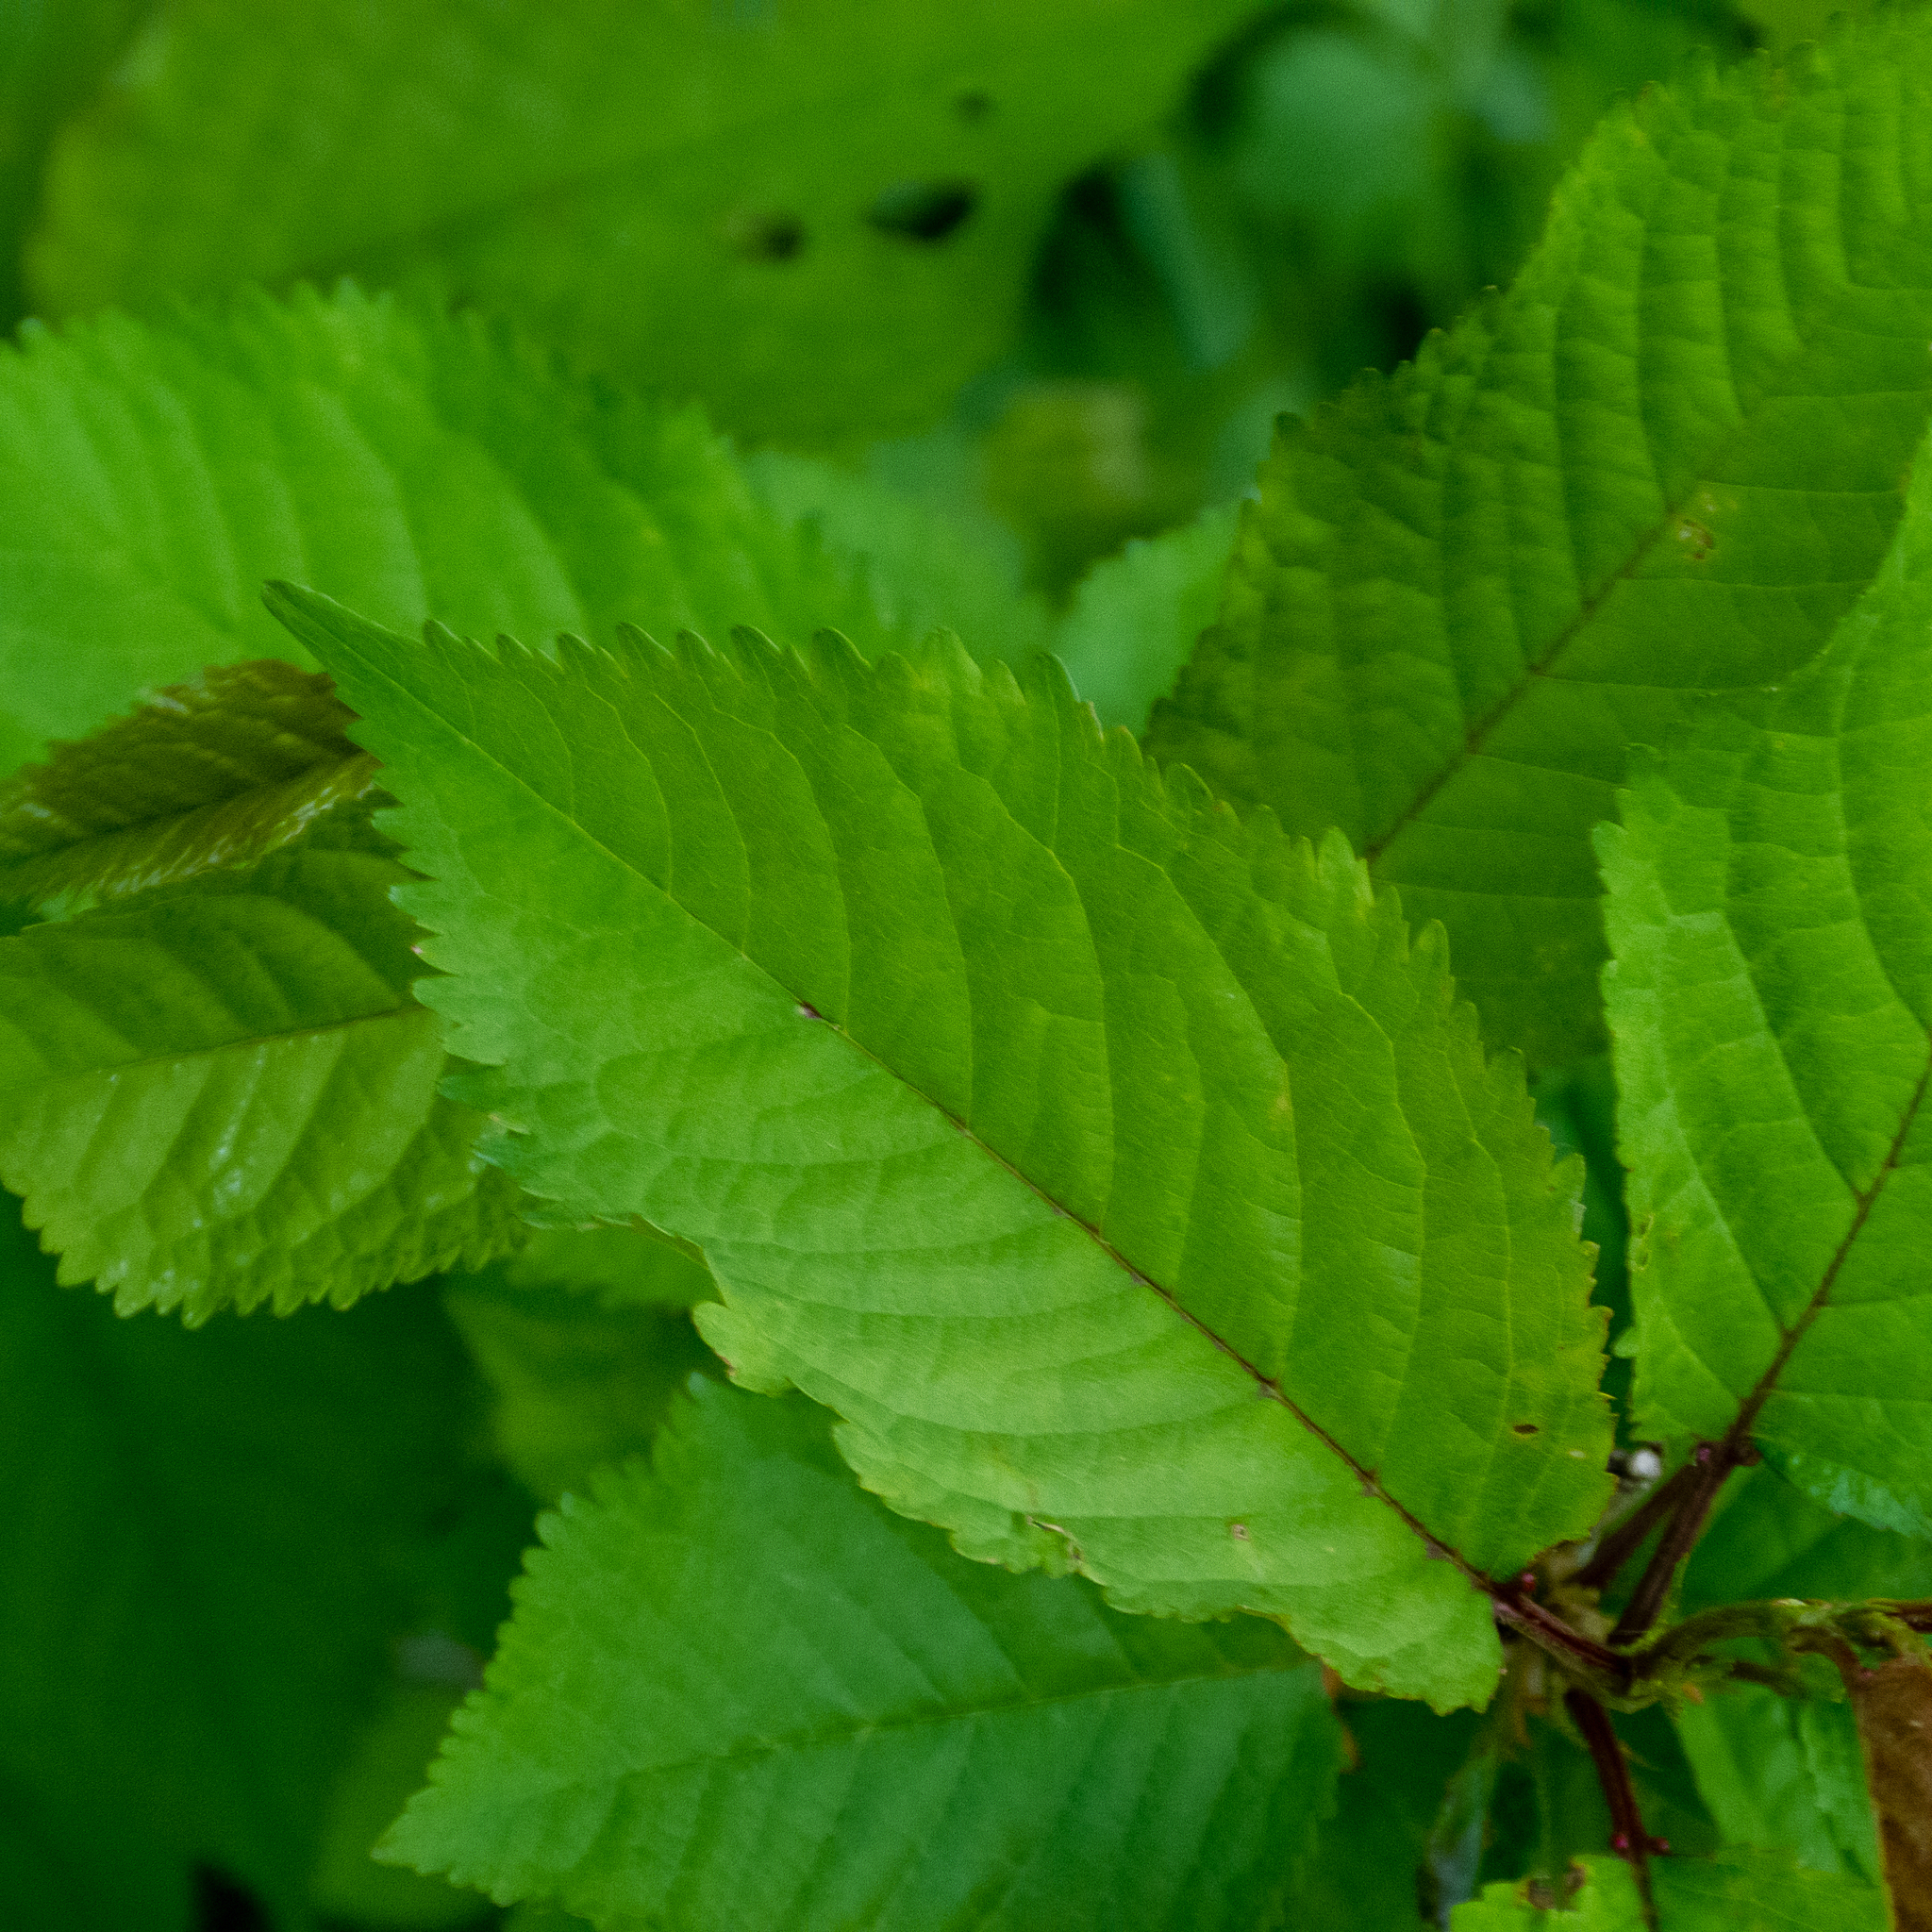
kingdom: Plantae
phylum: Tracheophyta
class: Magnoliopsida
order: Rosales
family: Rosaceae
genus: Prunus
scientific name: Prunus avium
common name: Sweet cherry
